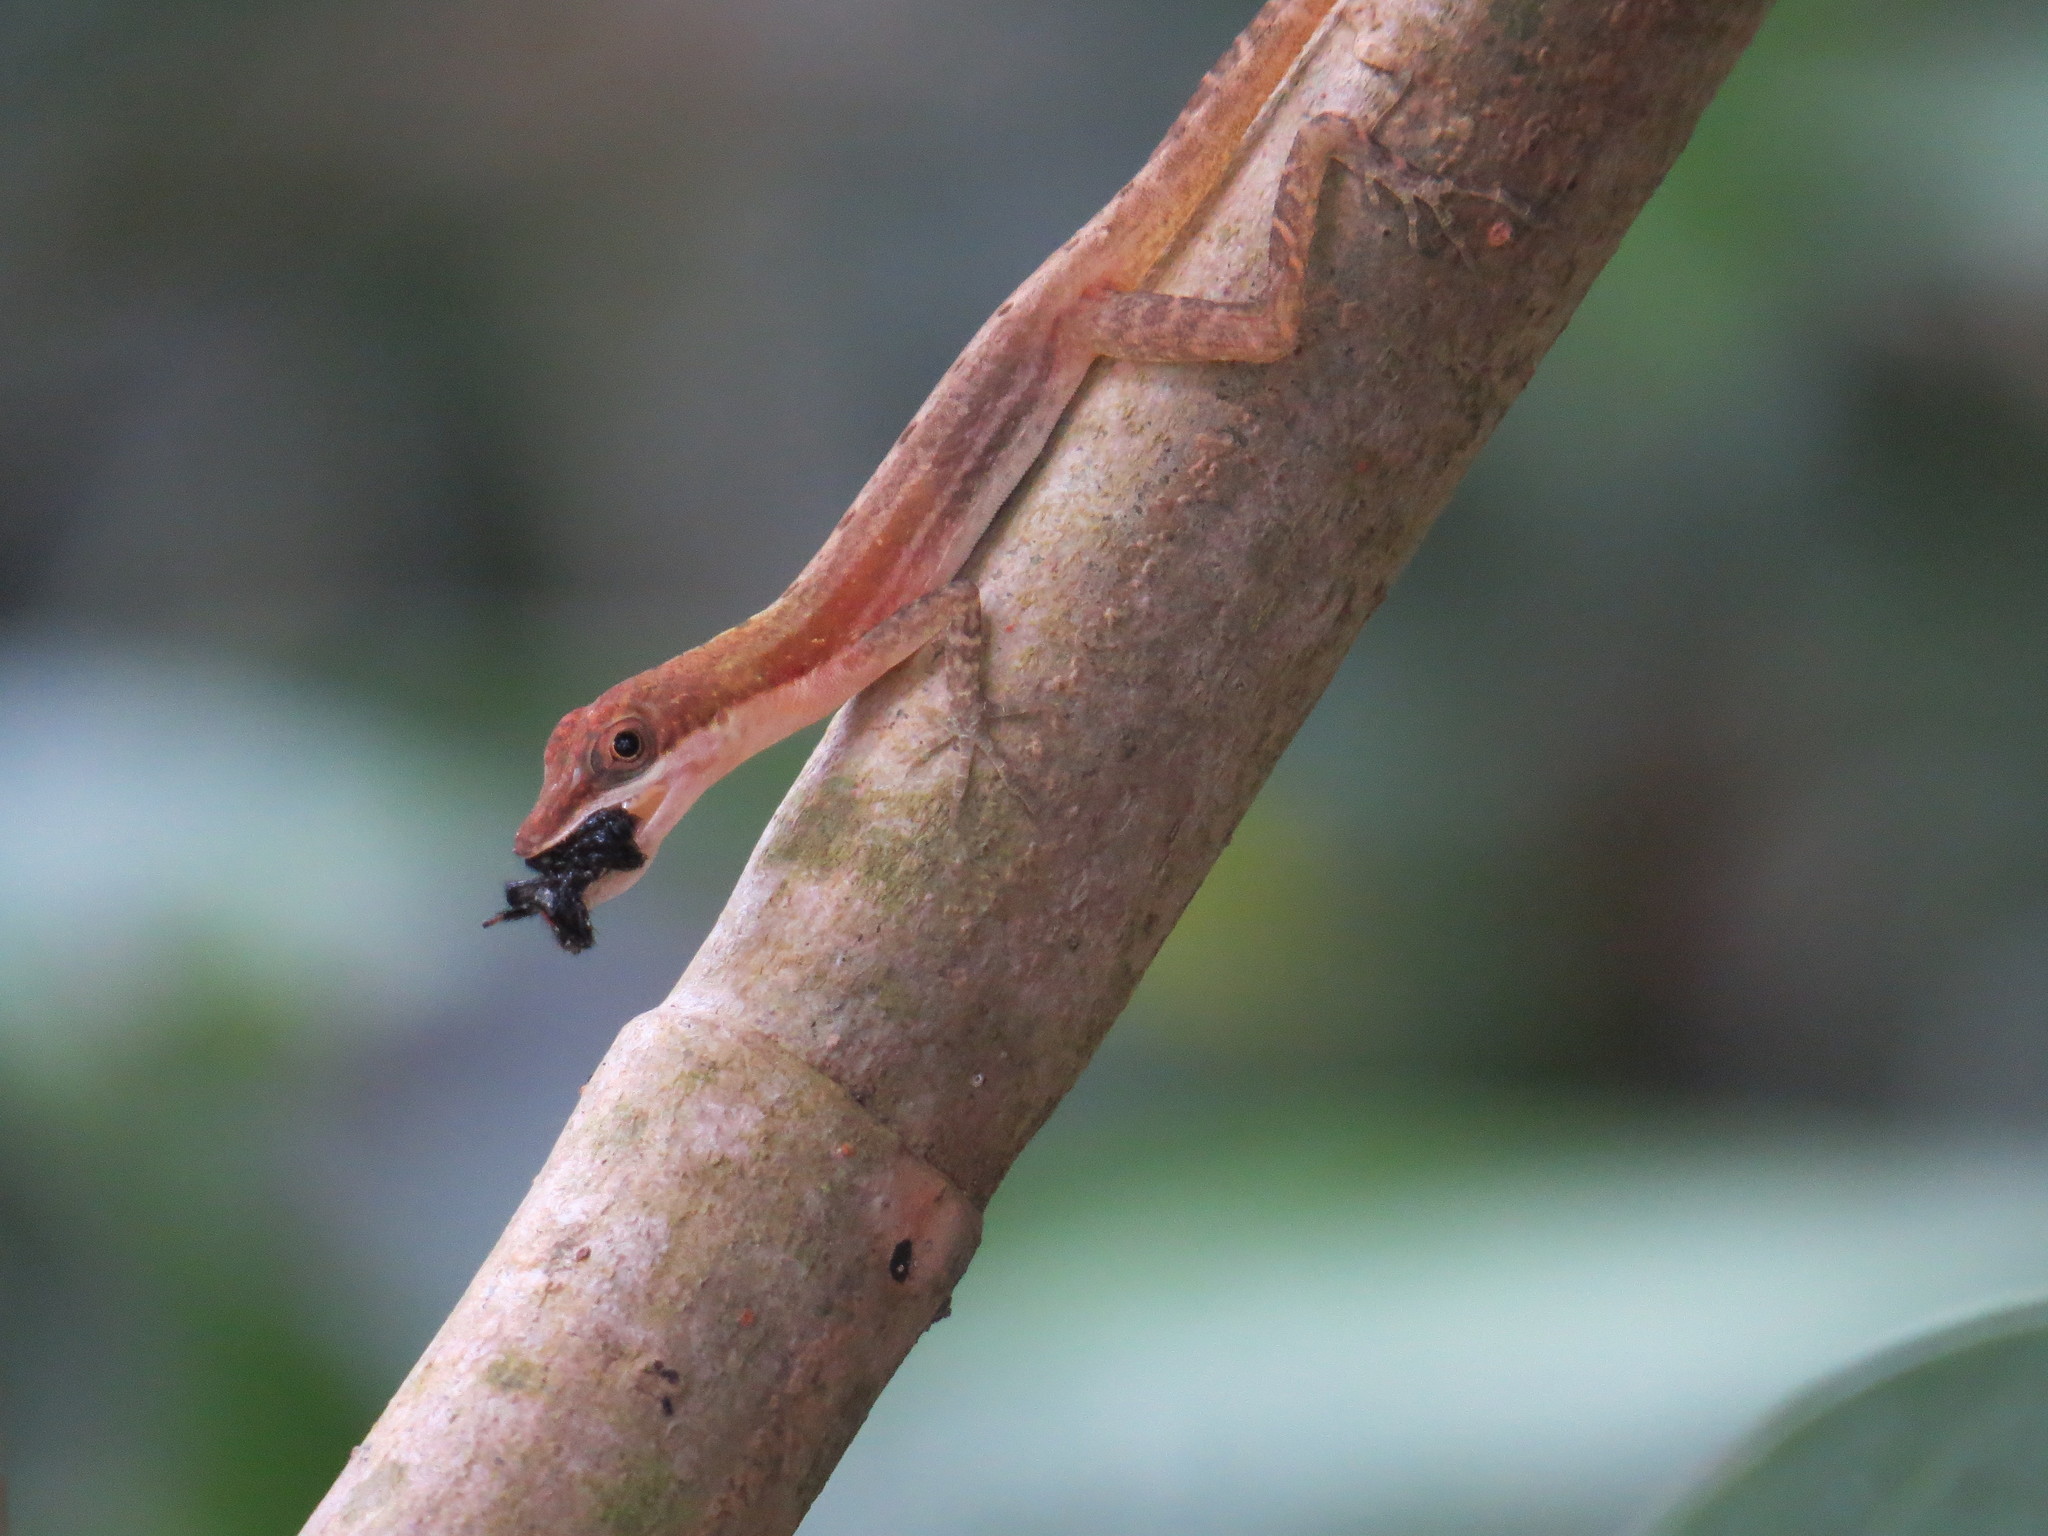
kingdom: Animalia
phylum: Chordata
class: Squamata
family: Dactyloidae
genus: Anolis
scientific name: Anolis limifrons
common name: Border anole
